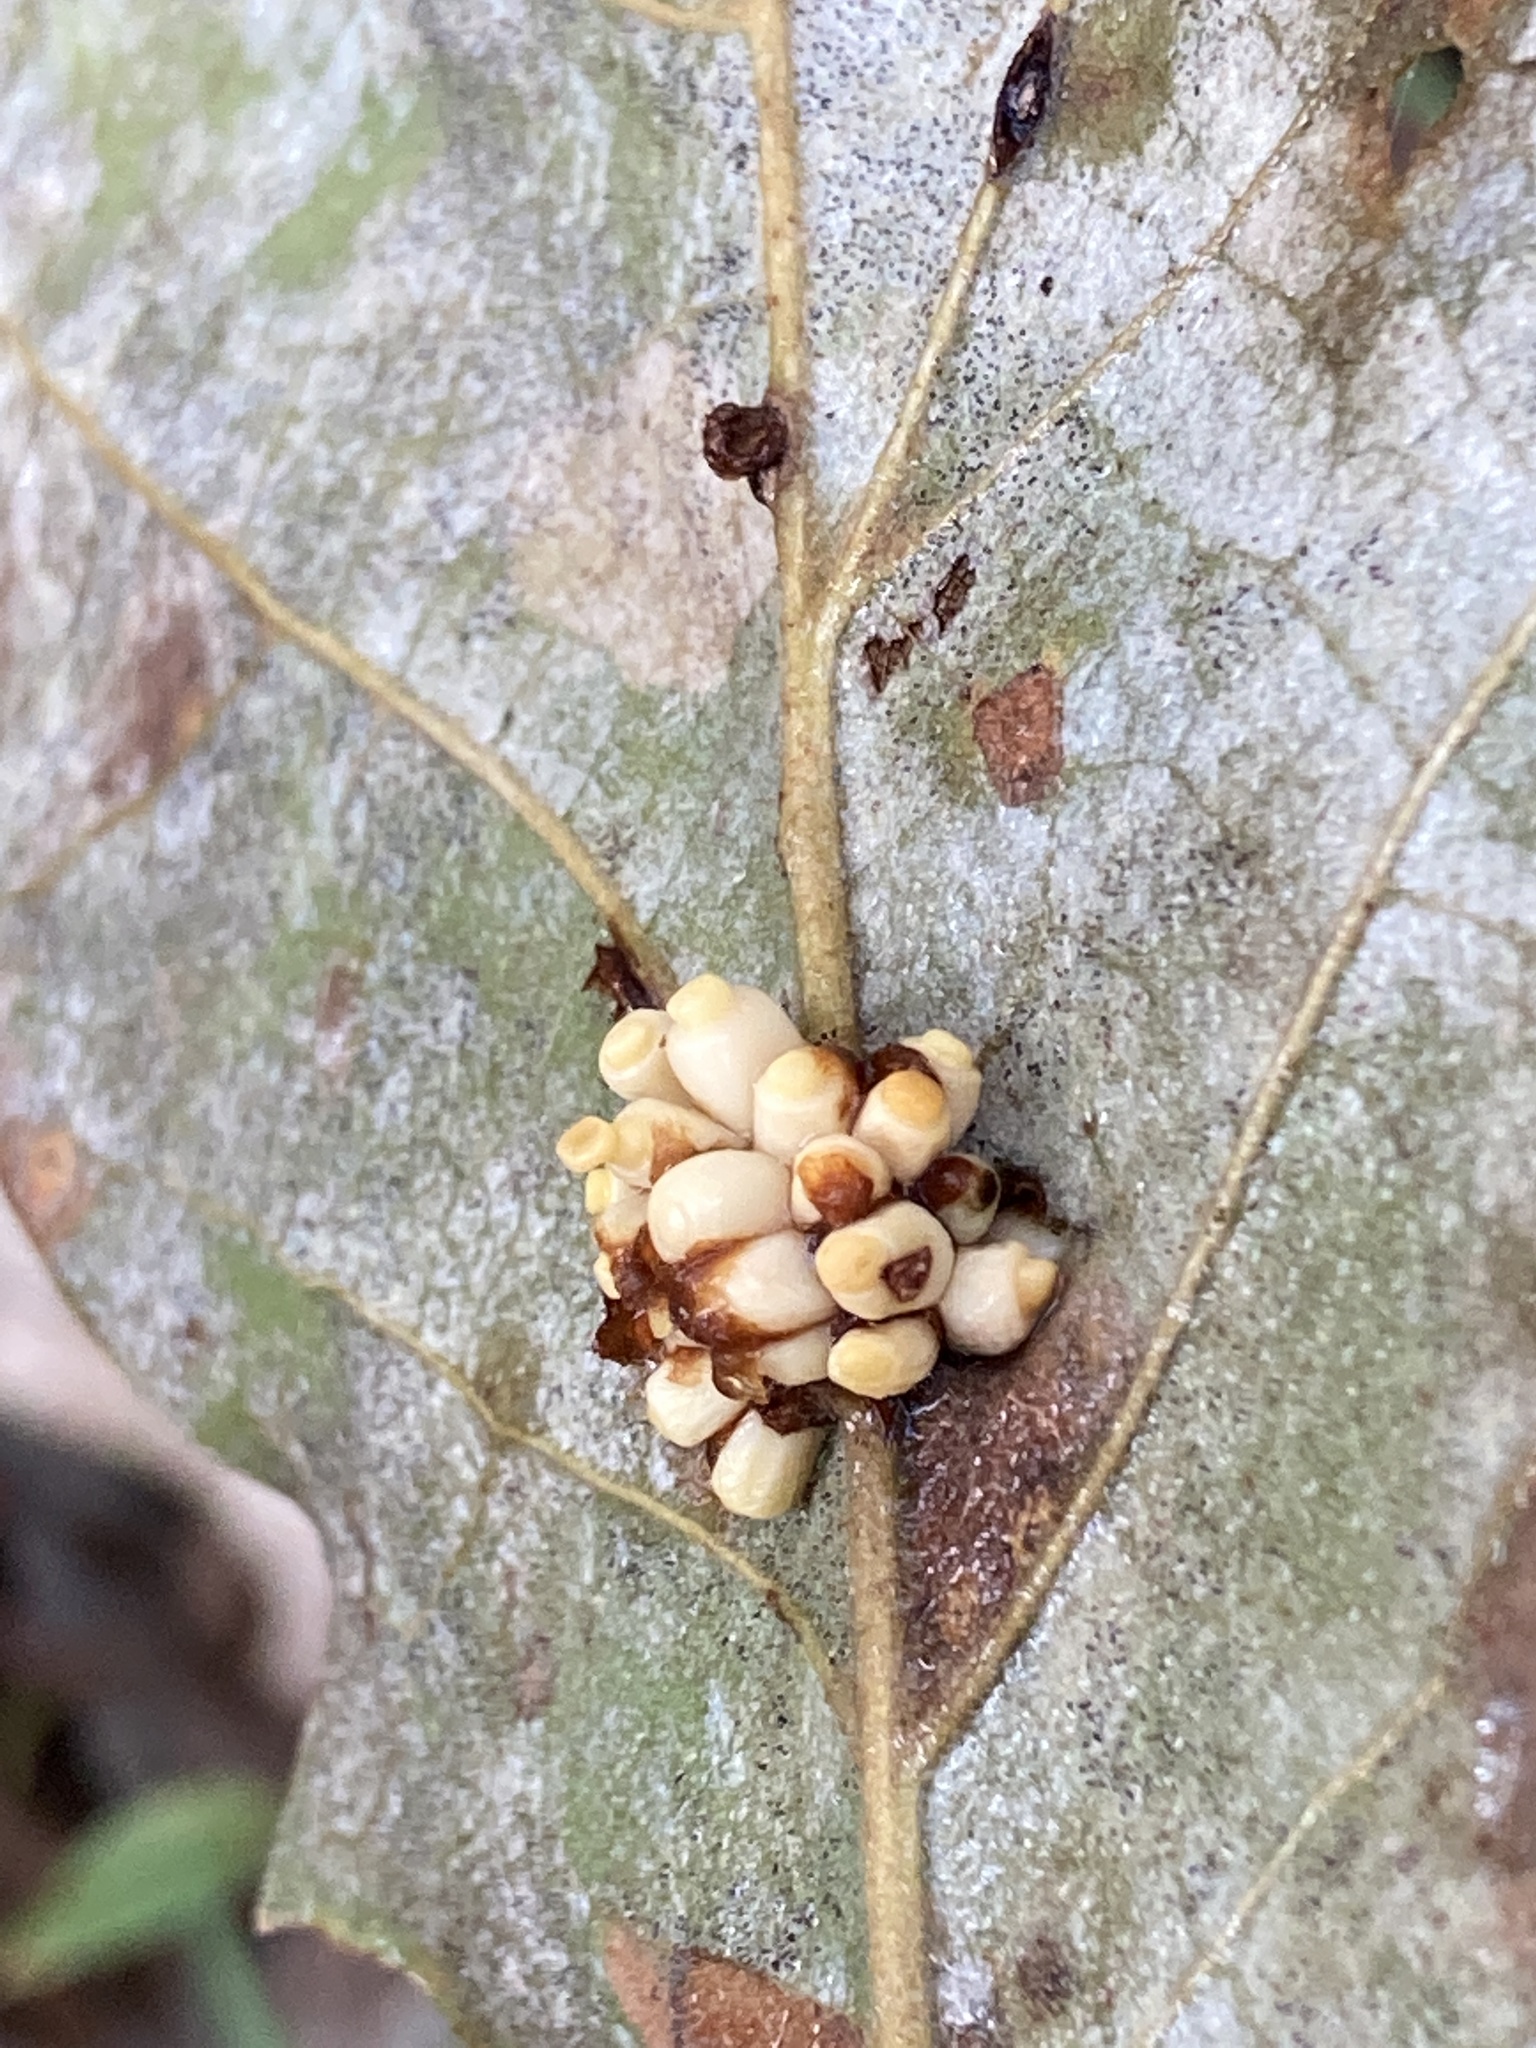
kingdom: Animalia
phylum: Arthropoda
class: Insecta
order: Hymenoptera
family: Cynipidae
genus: Kokkocynips
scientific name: Kokkocynips decidua
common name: Oak wheat gall
